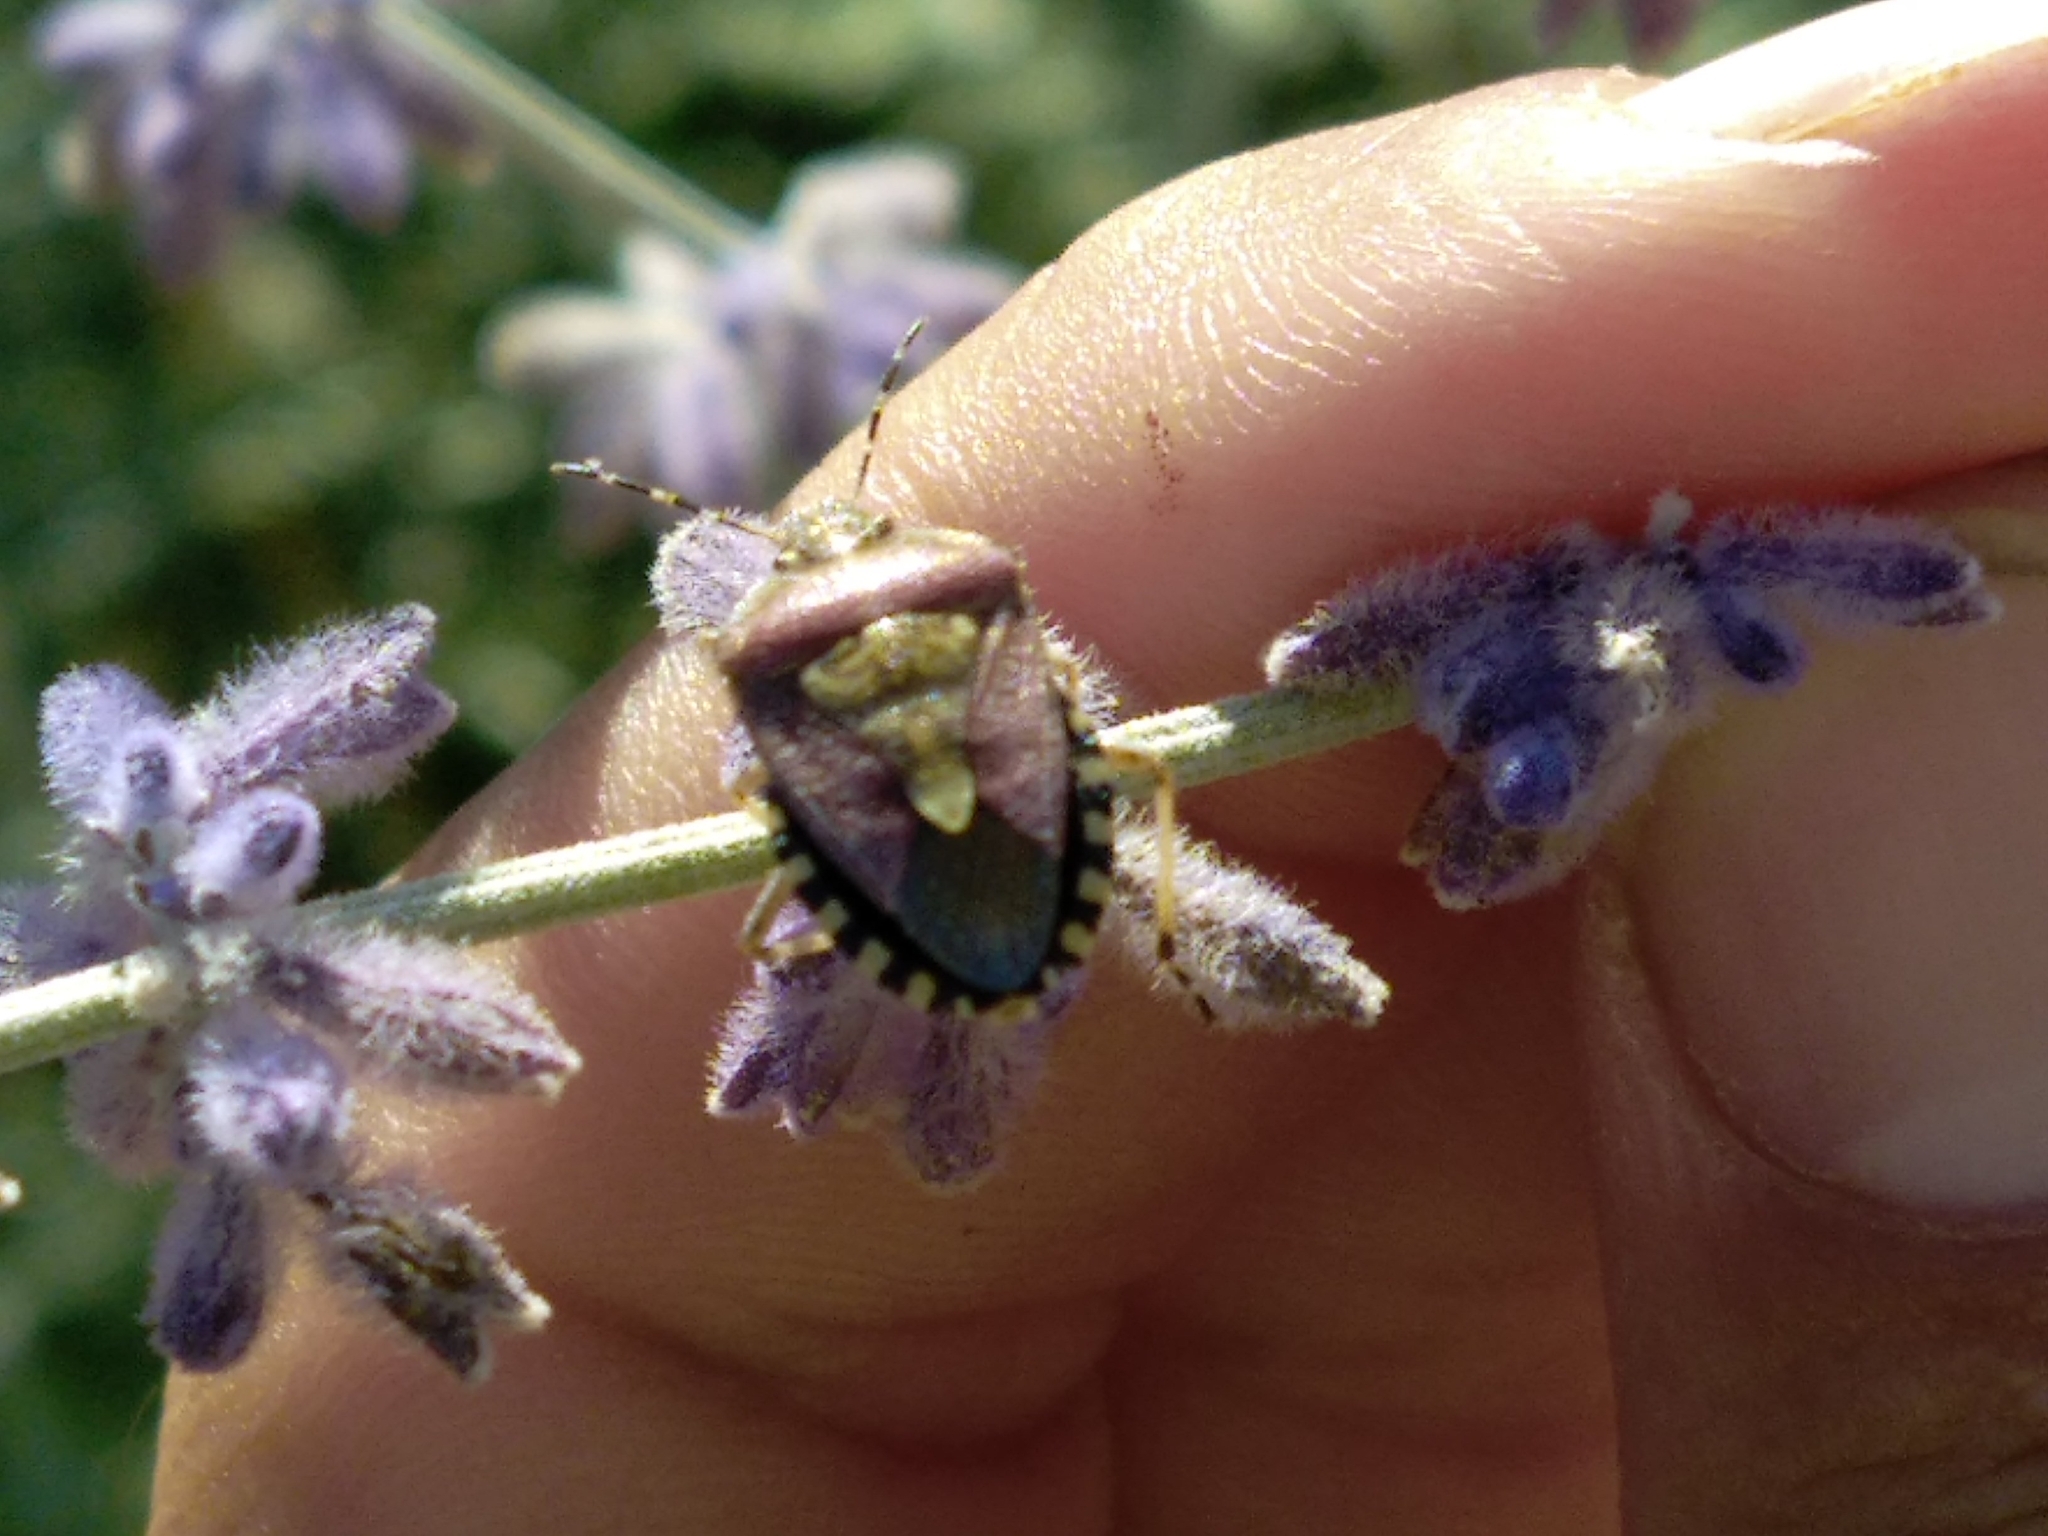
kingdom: Animalia
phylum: Arthropoda
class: Insecta
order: Hemiptera
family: Pentatomidae
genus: Dolycoris
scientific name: Dolycoris baccarum
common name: Sloe bug
